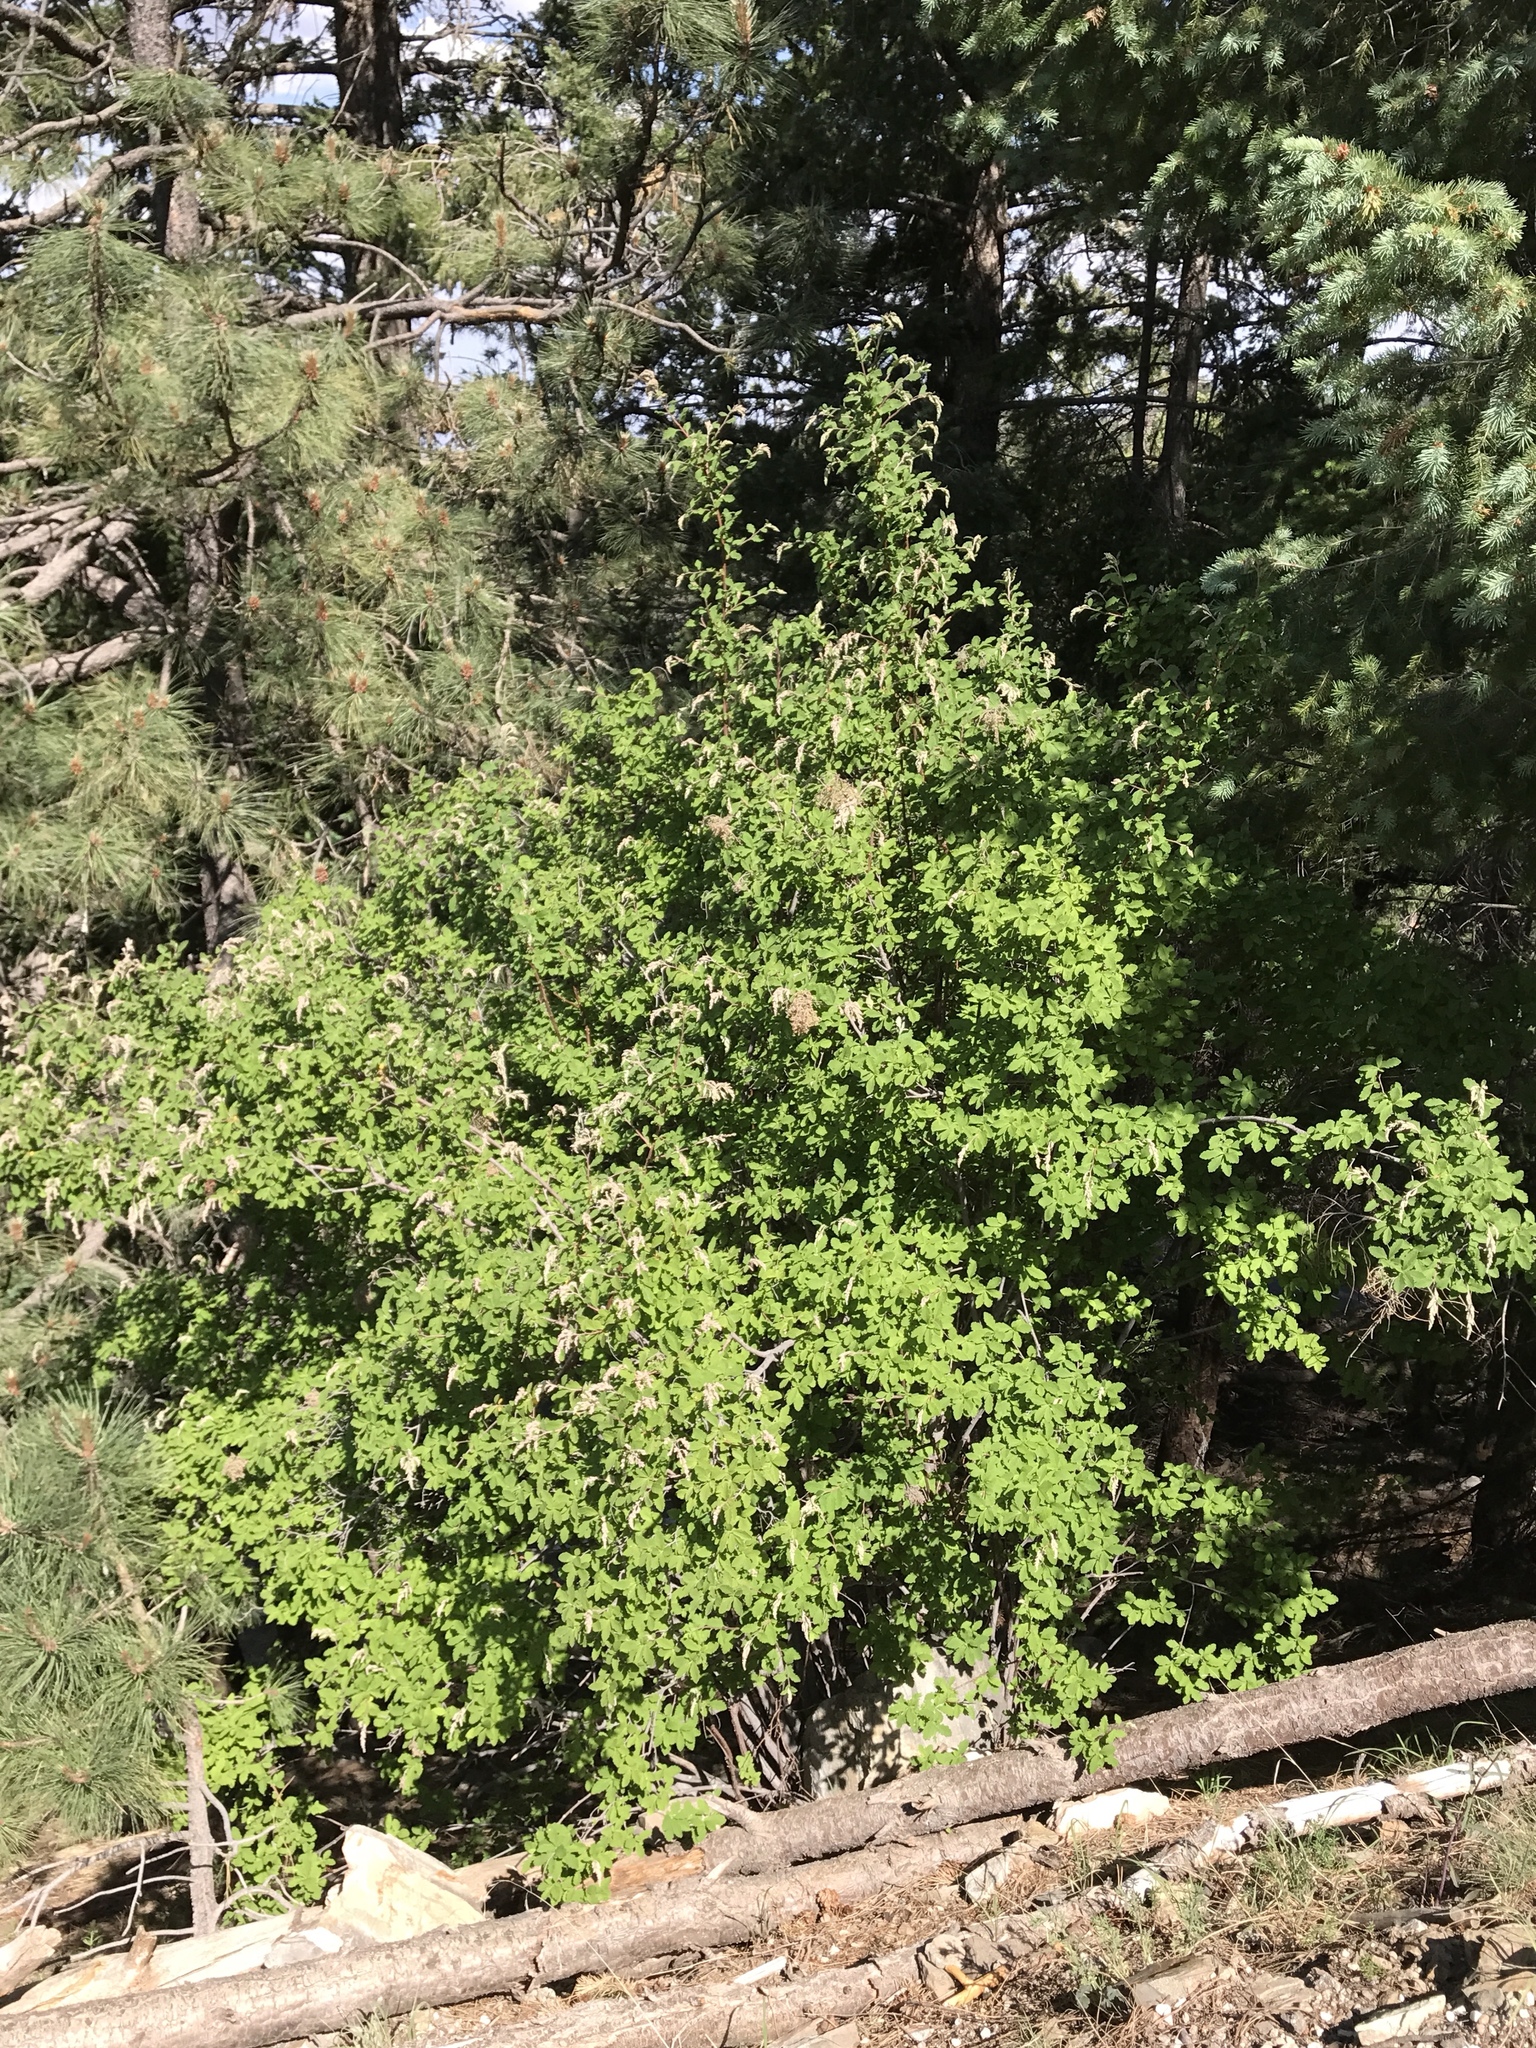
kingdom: Plantae
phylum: Tracheophyta
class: Magnoliopsida
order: Rosales
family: Rosaceae
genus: Holodiscus
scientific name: Holodiscus discolor
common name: Oceanspray
